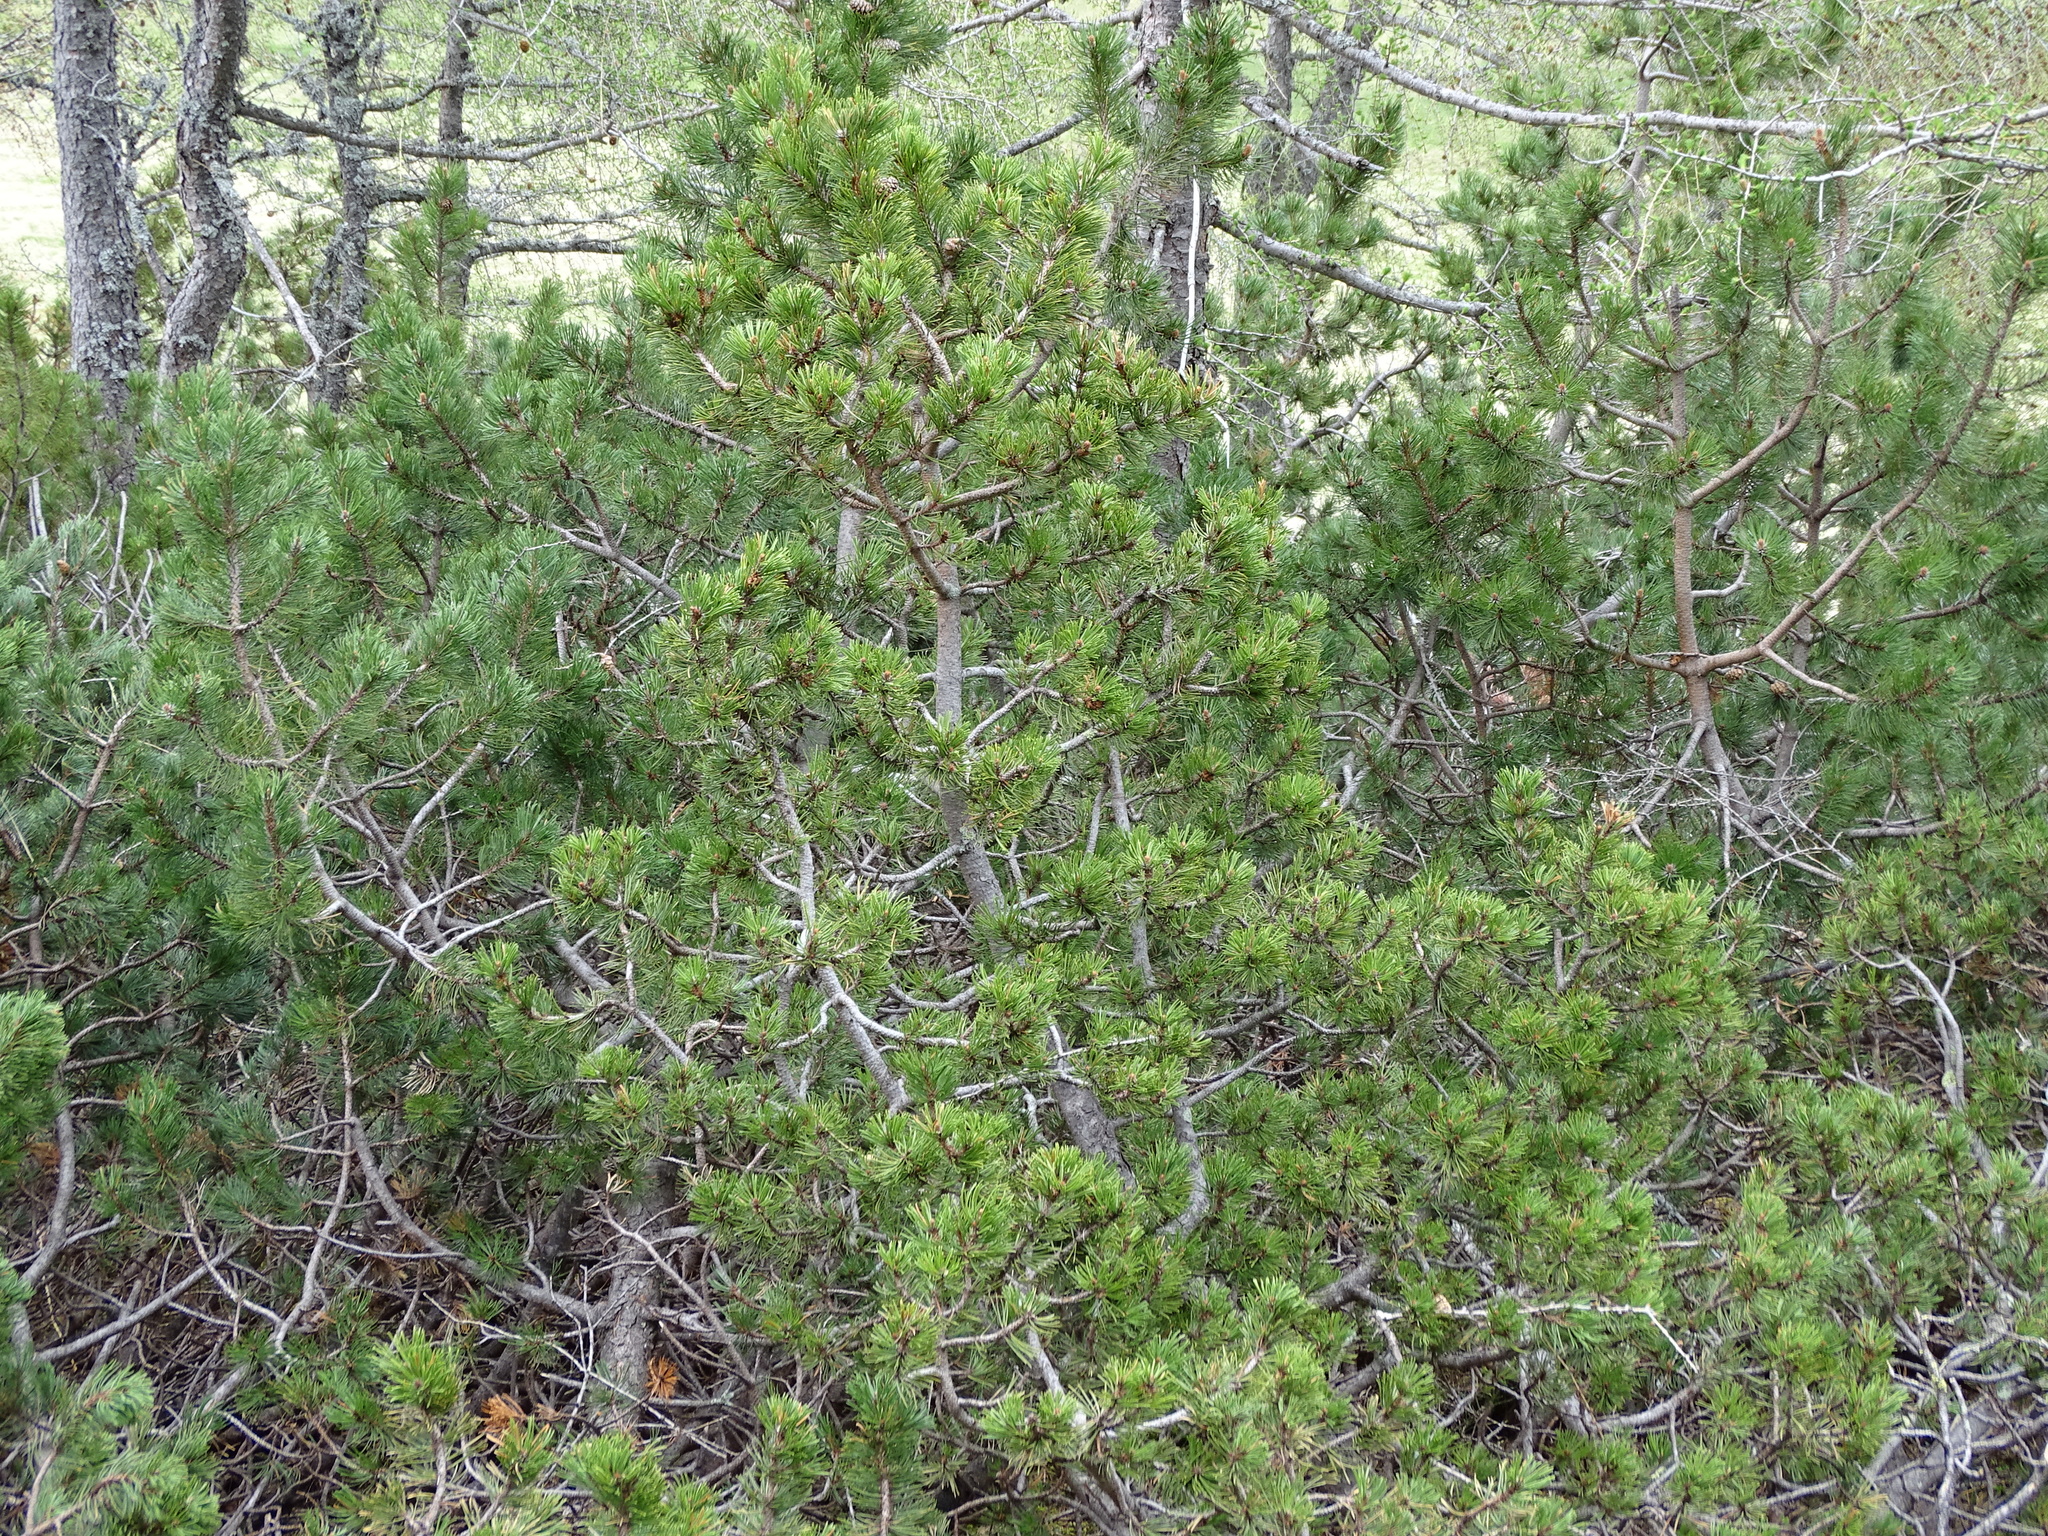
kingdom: Plantae
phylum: Tracheophyta
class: Pinopsida
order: Pinales
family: Pinaceae
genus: Pinus
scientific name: Pinus mugo
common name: Mugo pine
